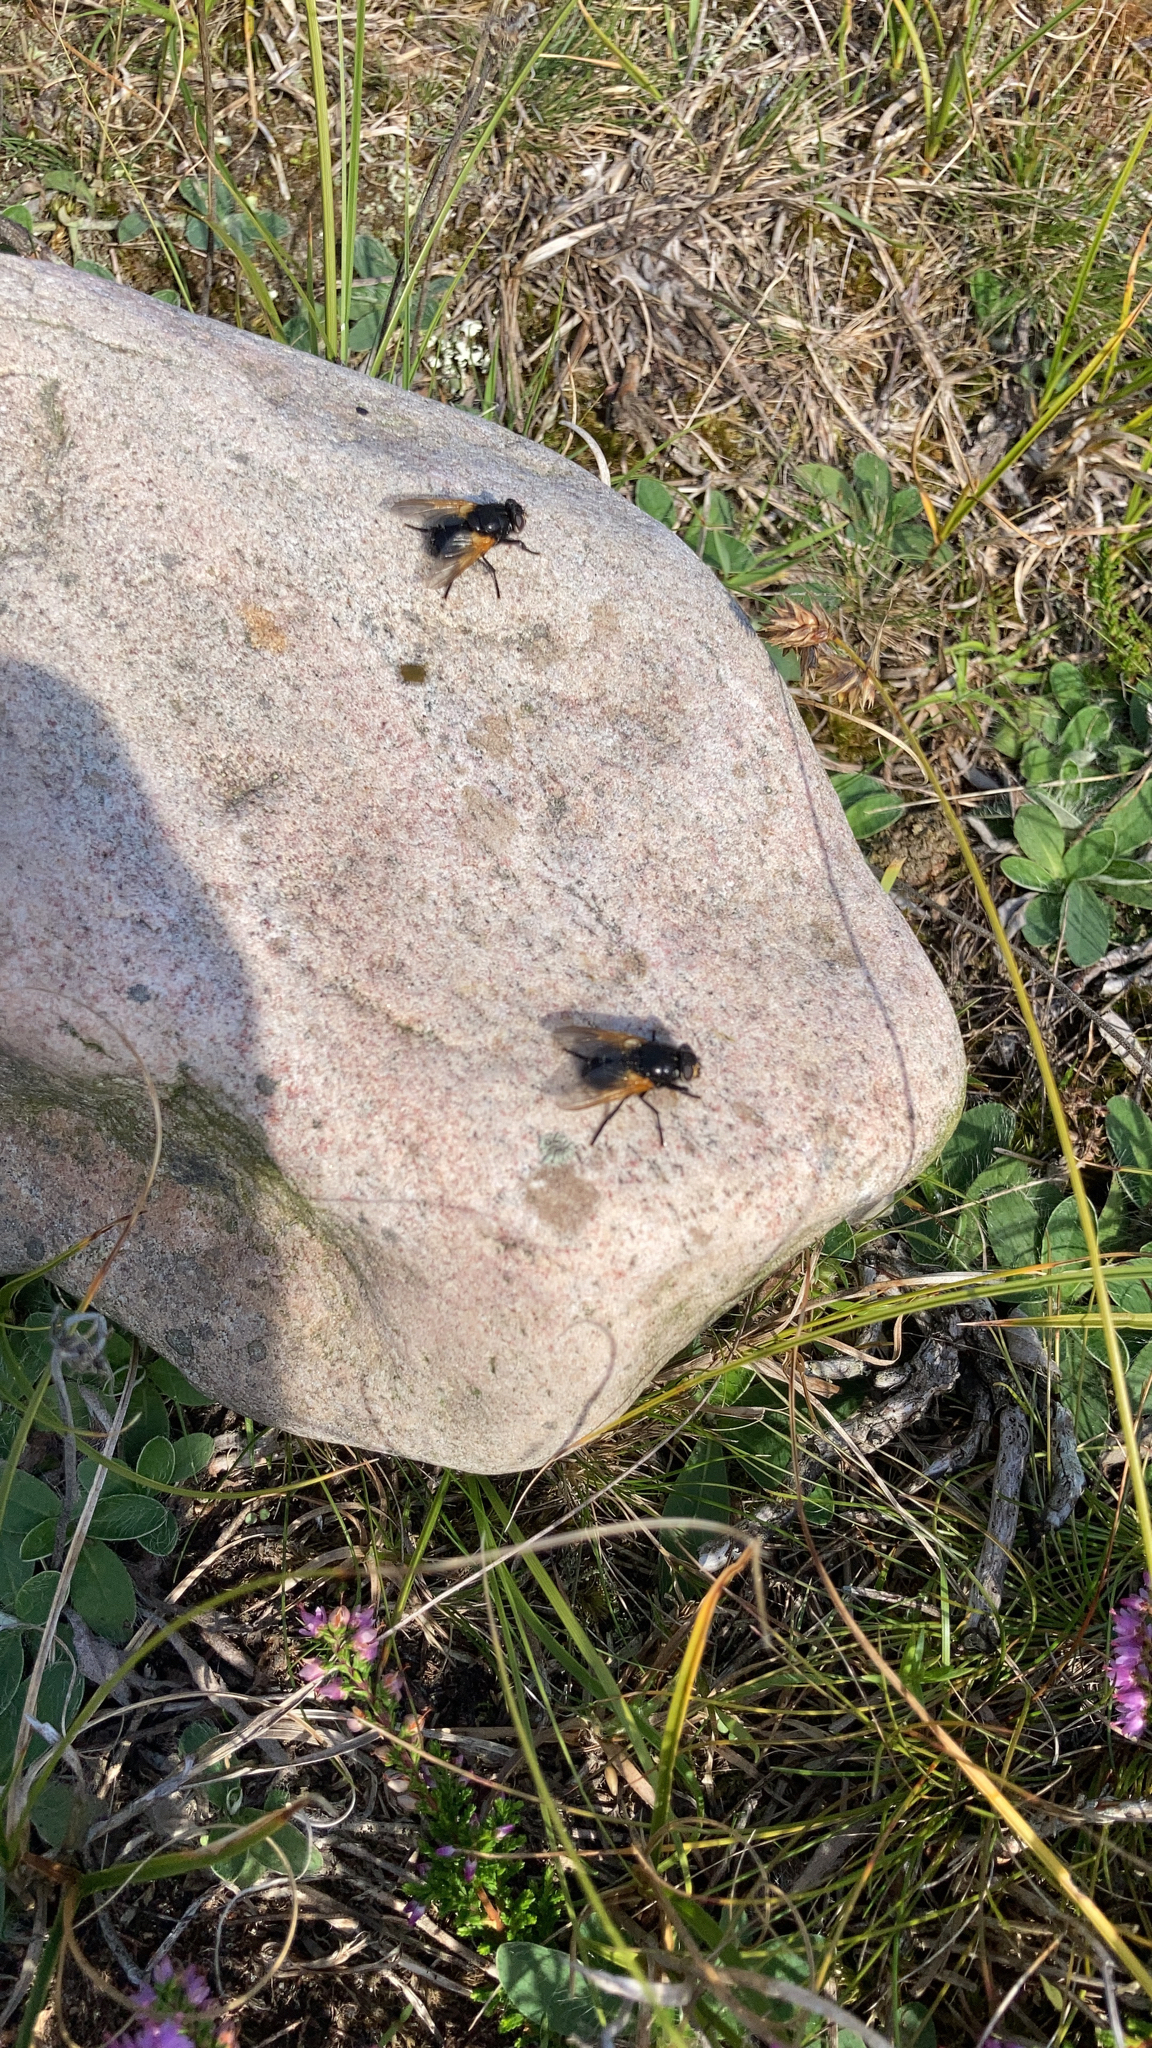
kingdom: Animalia
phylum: Arthropoda
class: Insecta
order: Diptera
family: Muscidae
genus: Mesembrina
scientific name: Mesembrina meridiana
